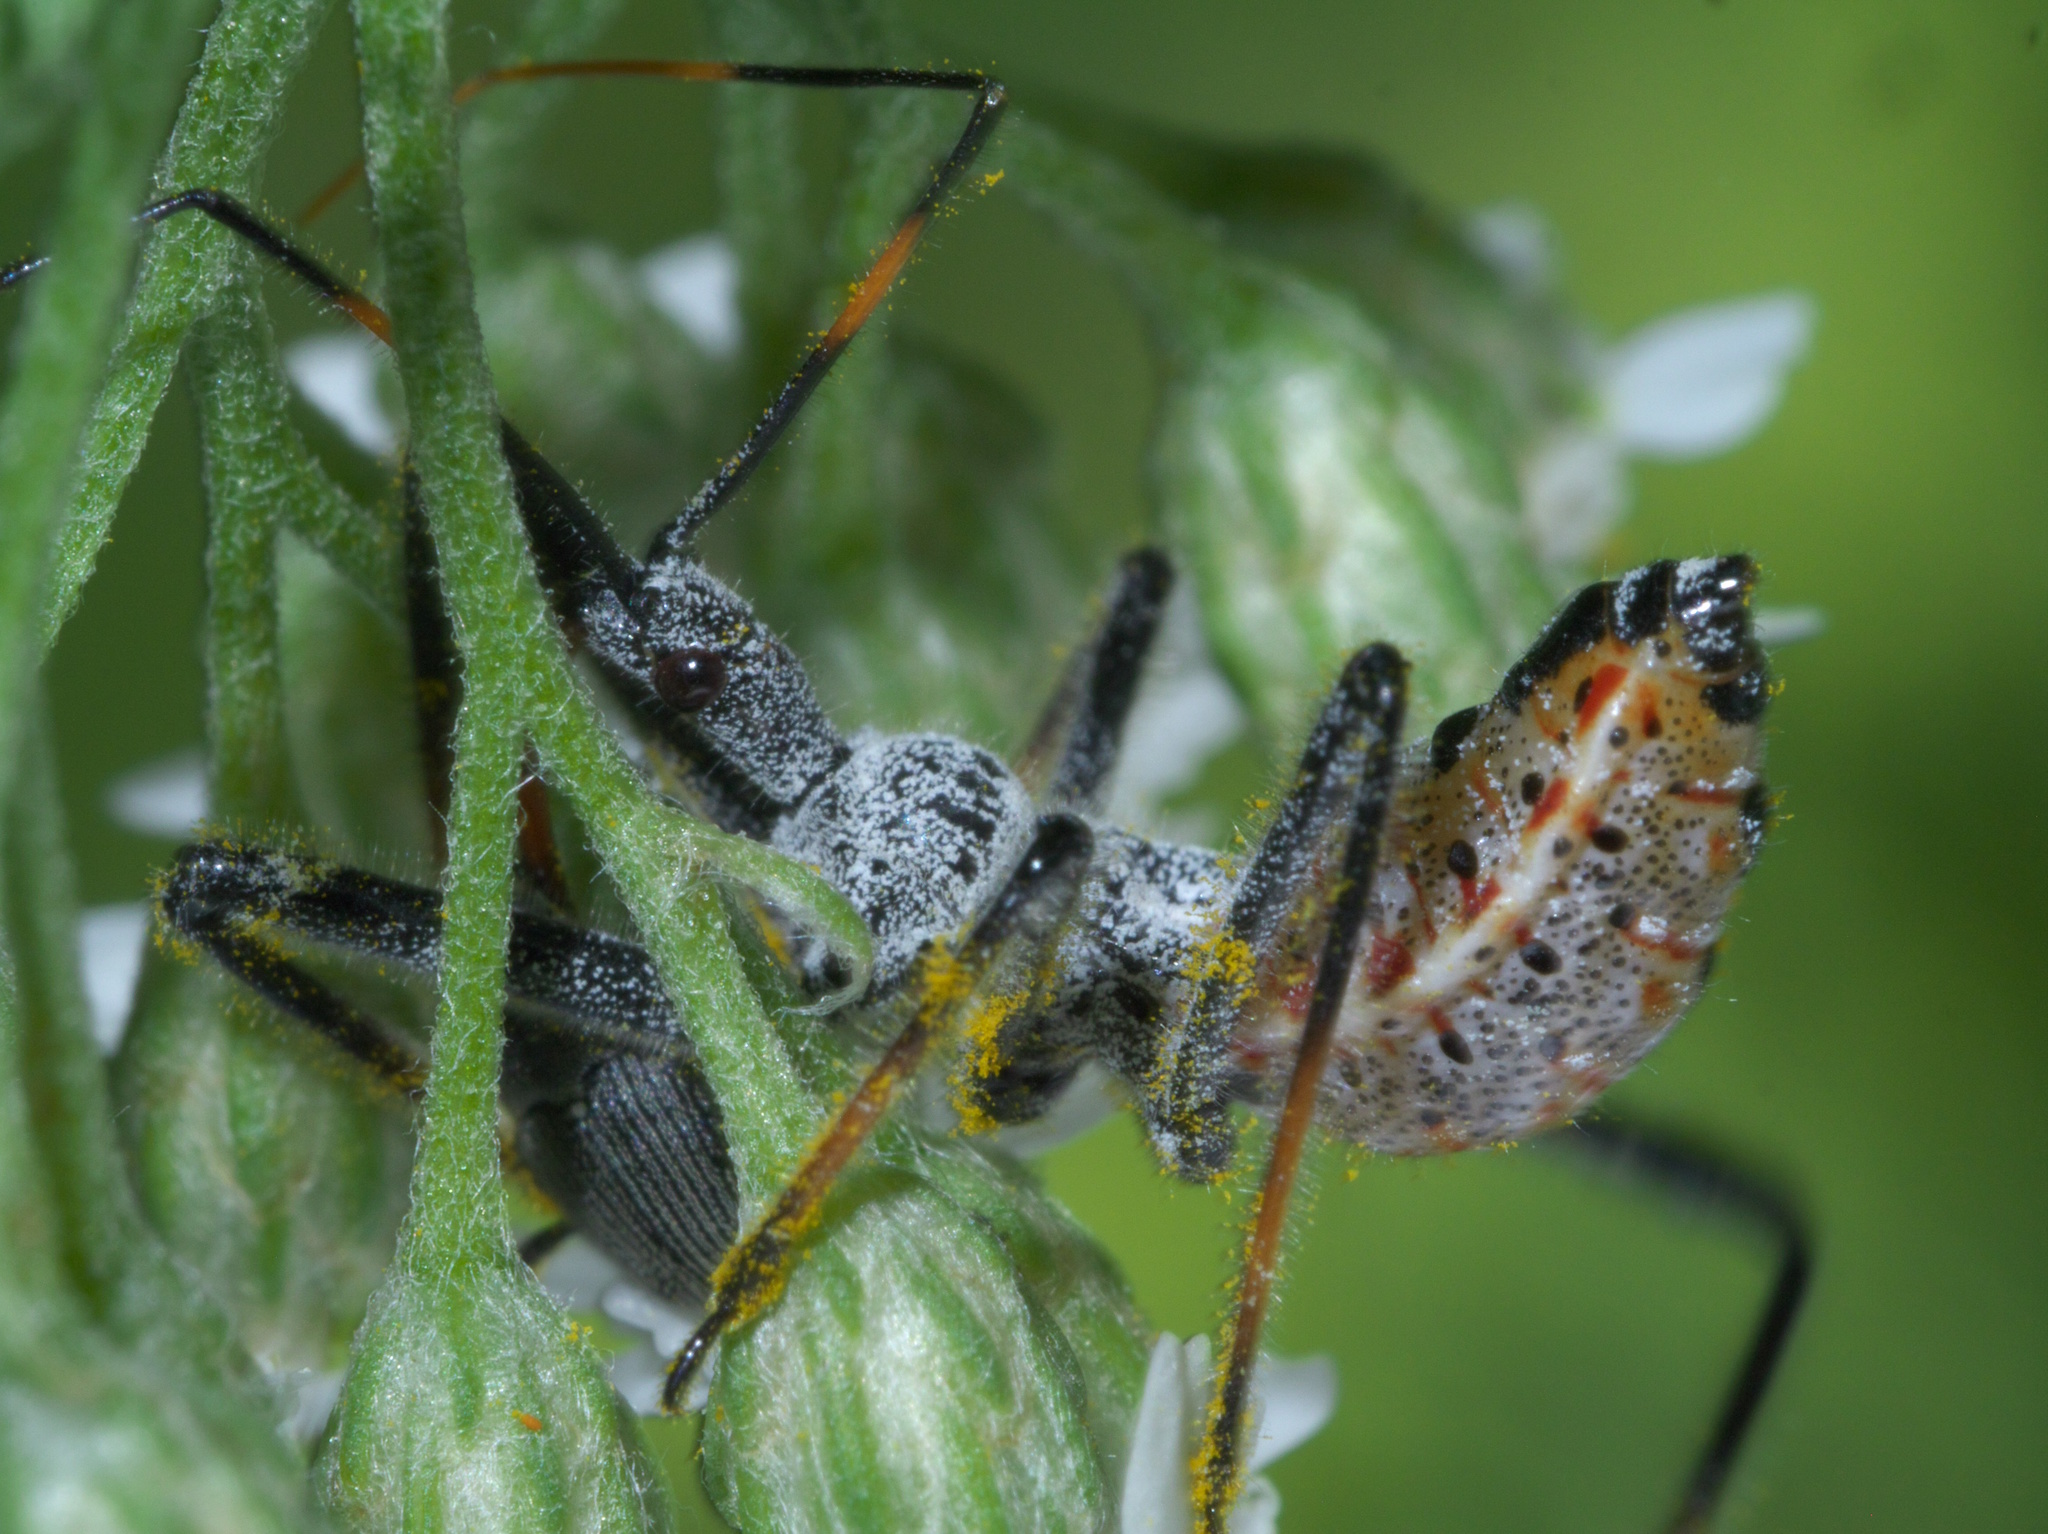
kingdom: Animalia
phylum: Arthropoda
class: Insecta
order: Hemiptera
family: Reduviidae
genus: Arilus
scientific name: Arilus cristatus
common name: North american wheel bug
